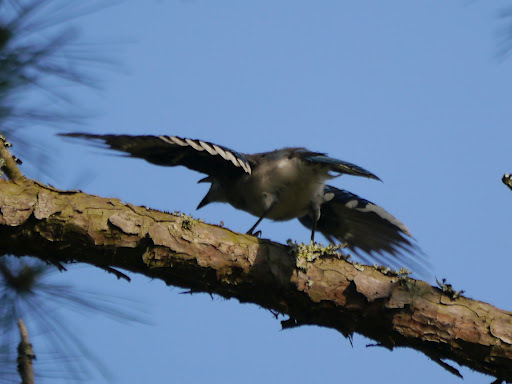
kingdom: Animalia
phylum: Chordata
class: Aves
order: Passeriformes
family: Corvidae
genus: Cyanocitta
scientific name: Cyanocitta cristata
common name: Blue jay
